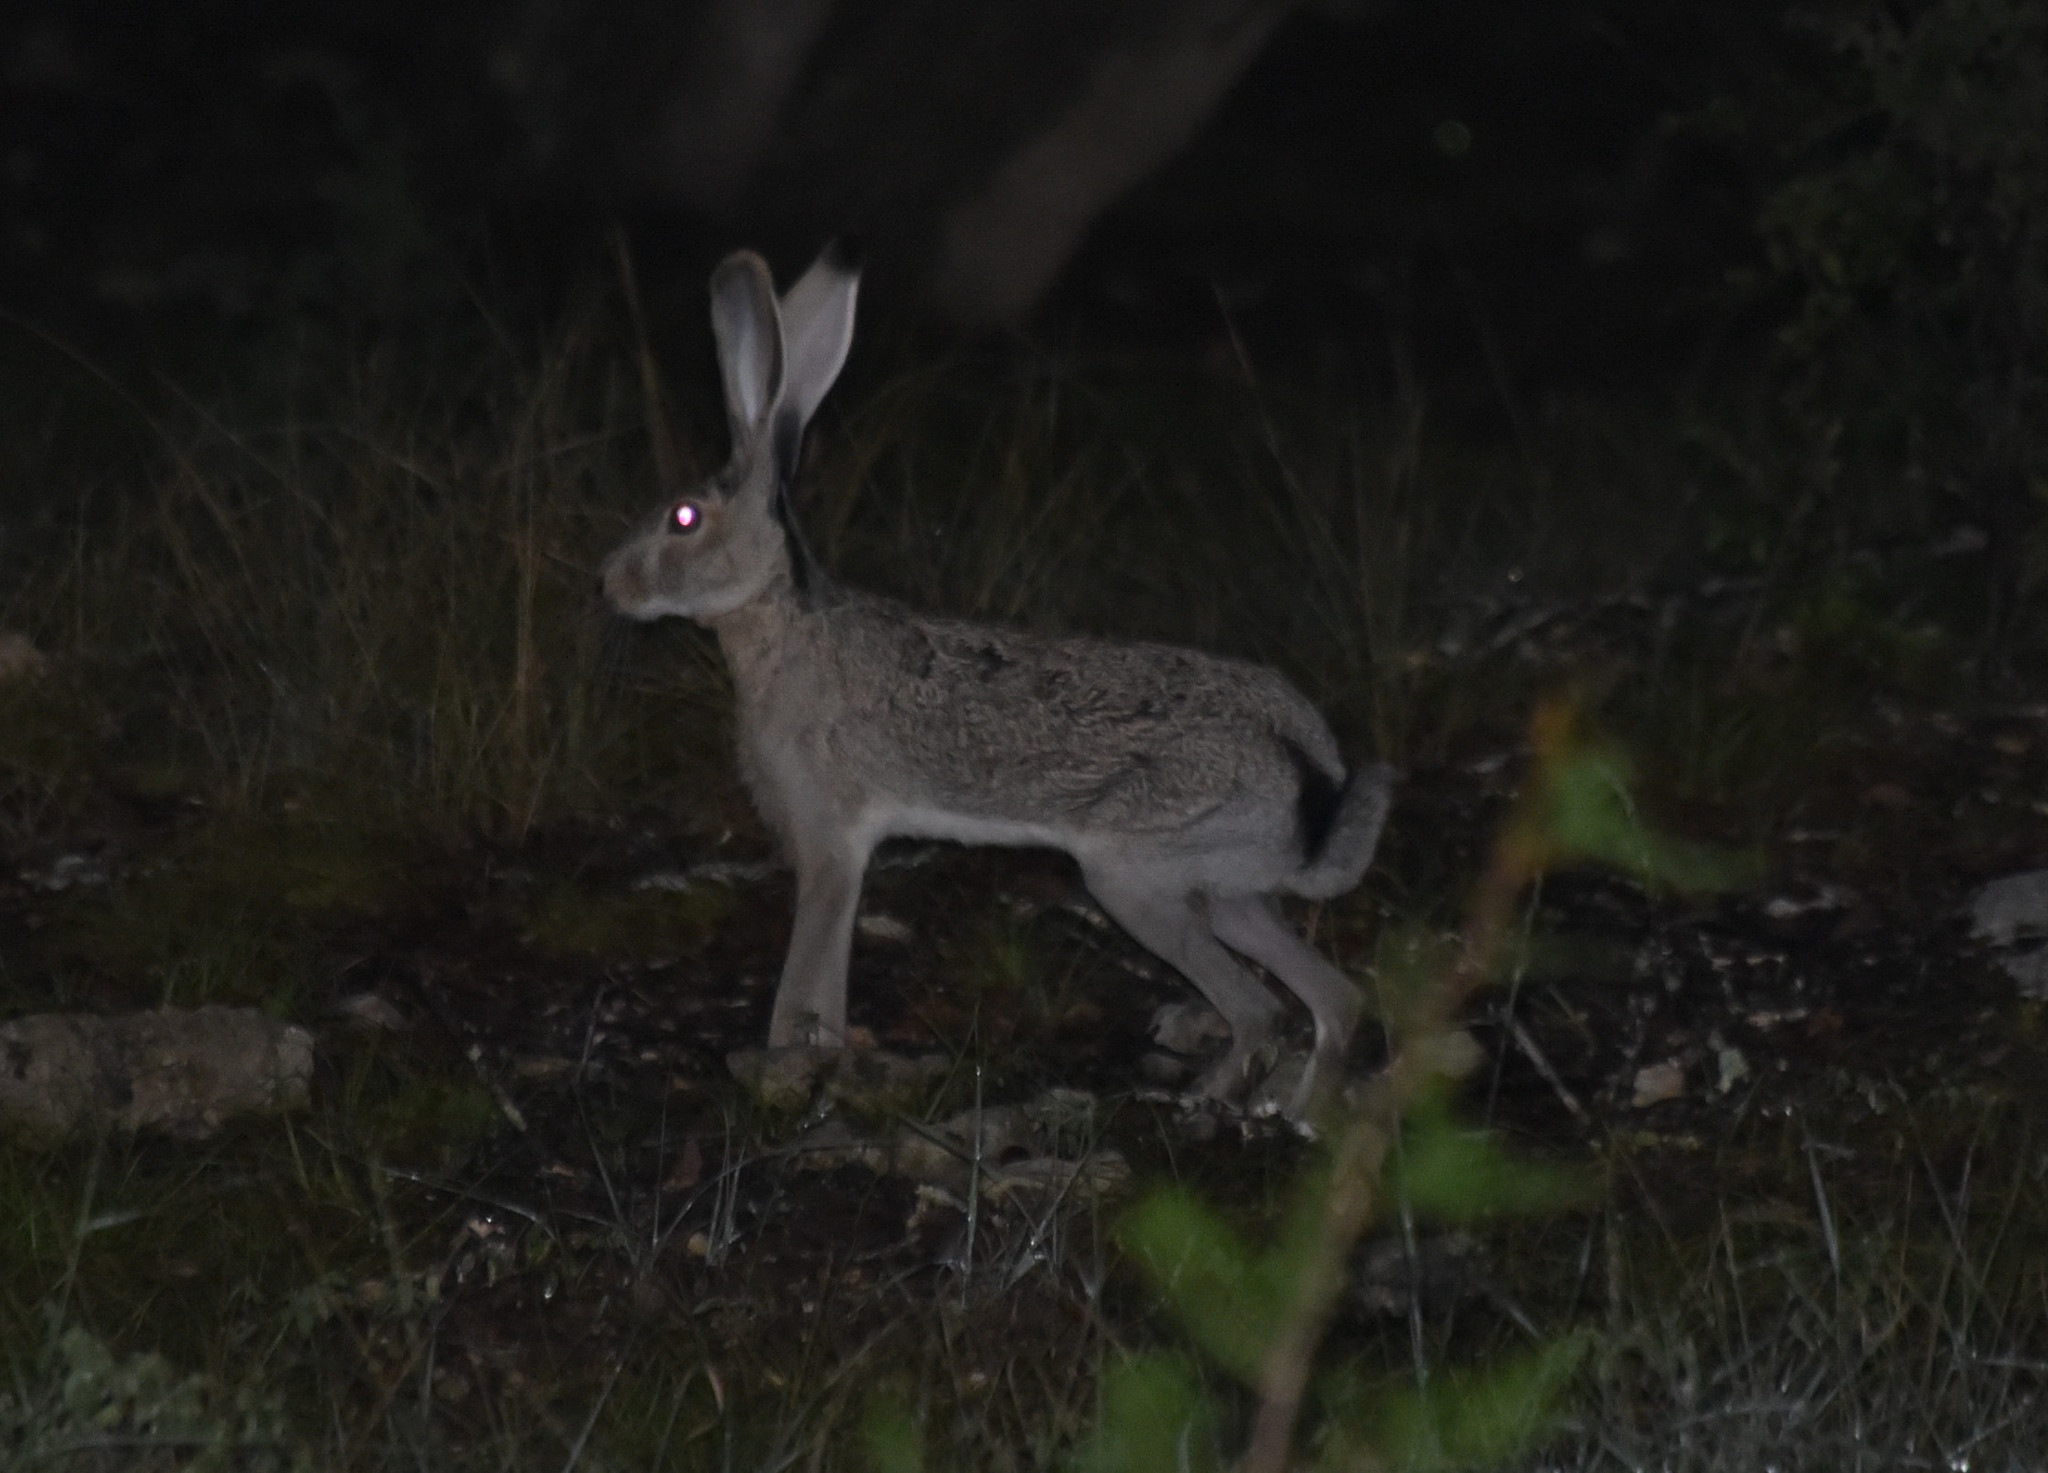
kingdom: Animalia
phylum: Chordata
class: Mammalia
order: Lagomorpha
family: Leporidae
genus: Lepus
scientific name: Lepus californicus
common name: Black-tailed jackrabbit
